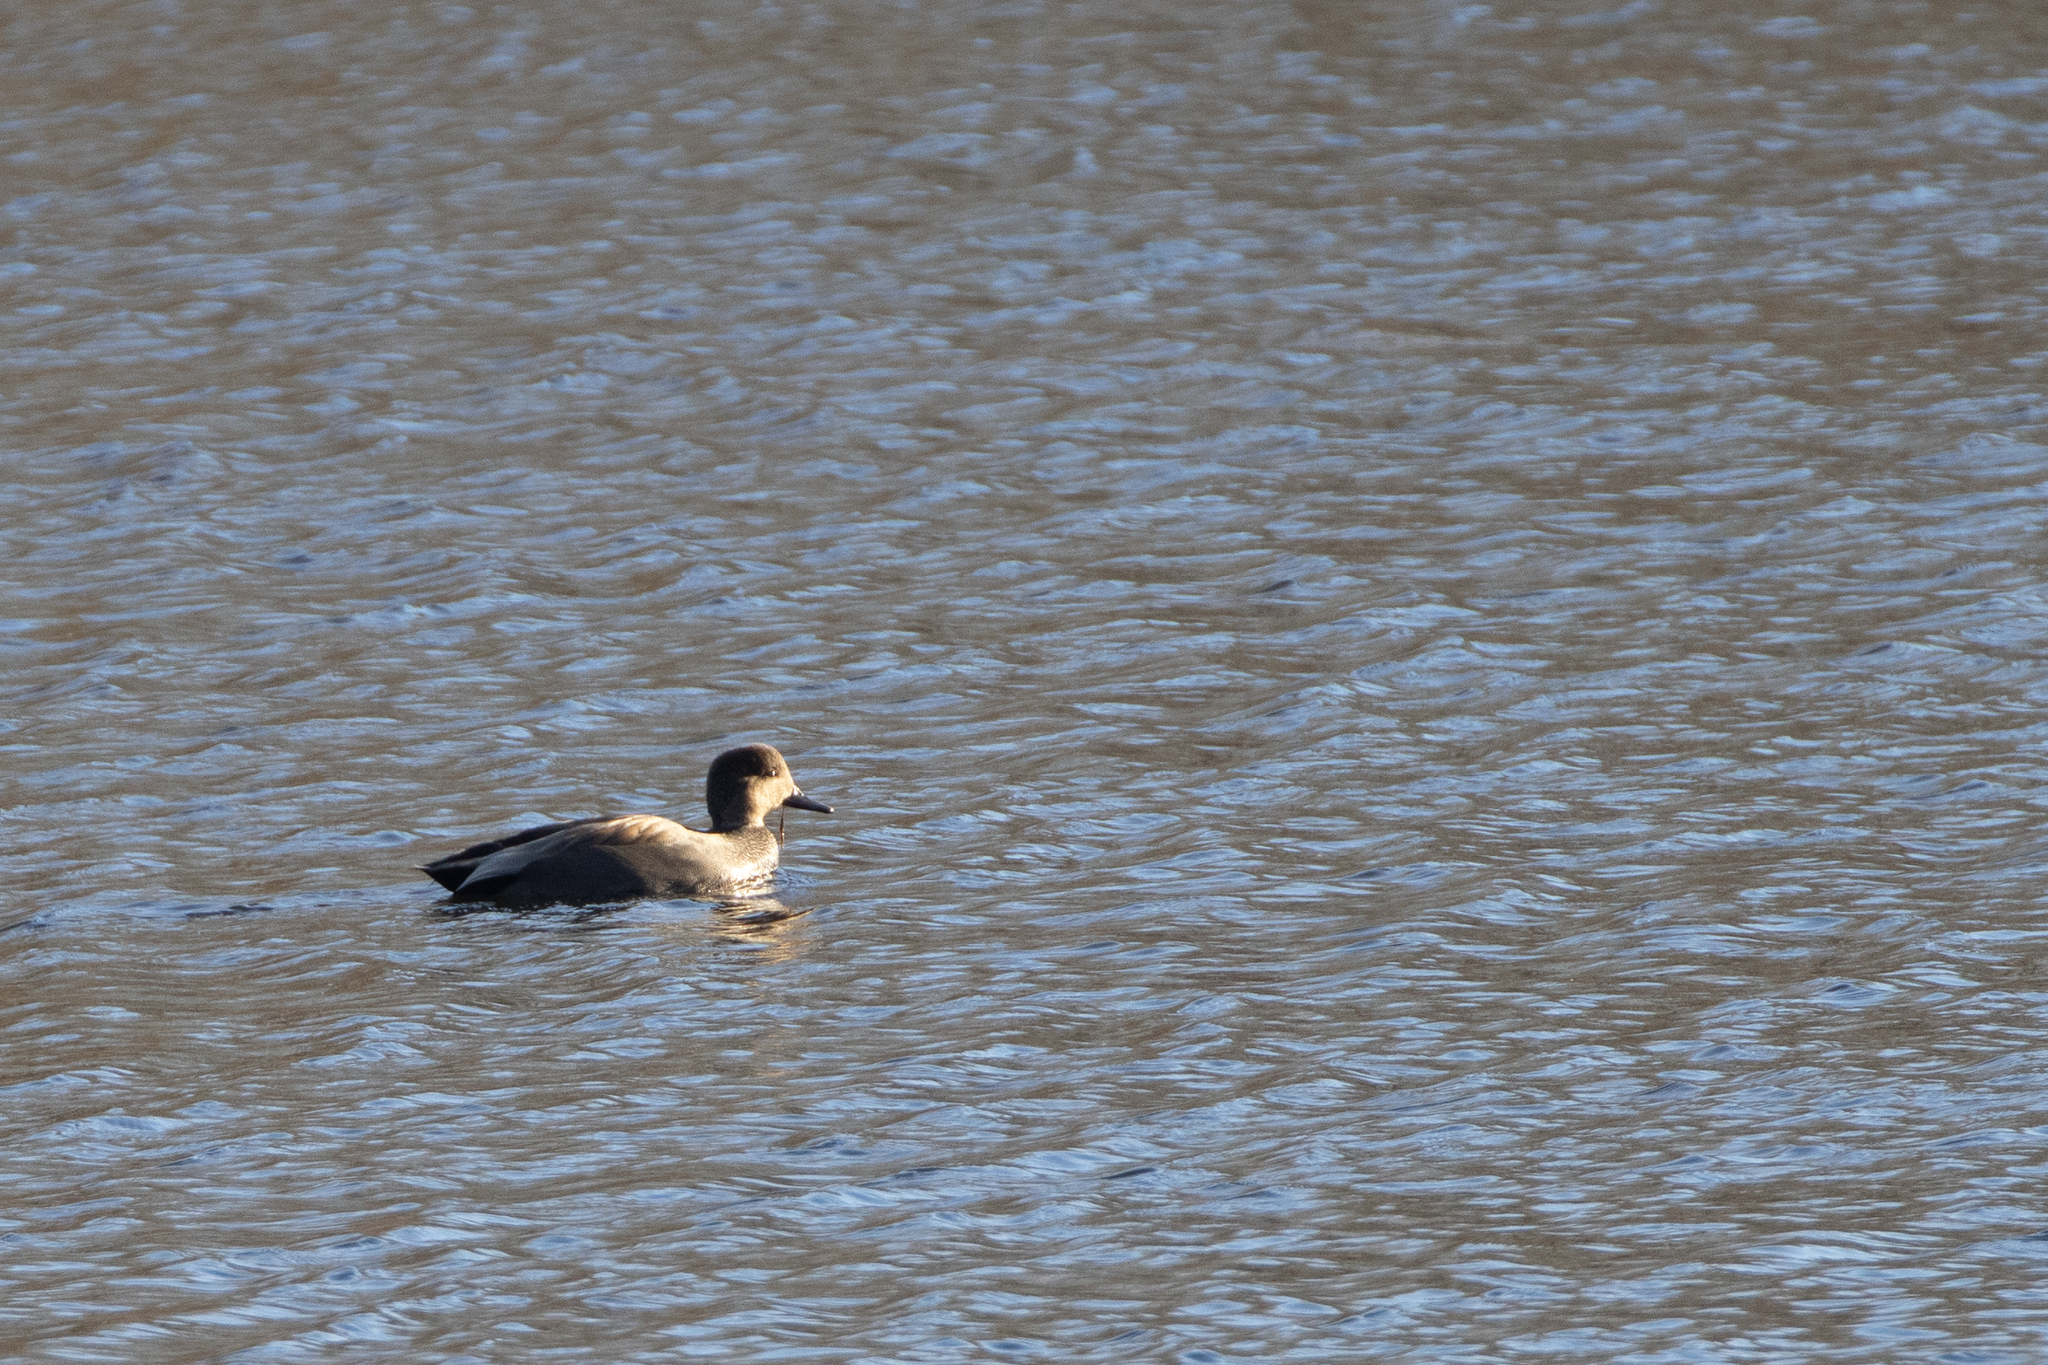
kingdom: Animalia
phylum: Chordata
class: Aves
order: Anseriformes
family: Anatidae
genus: Mareca
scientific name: Mareca strepera
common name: Gadwall
